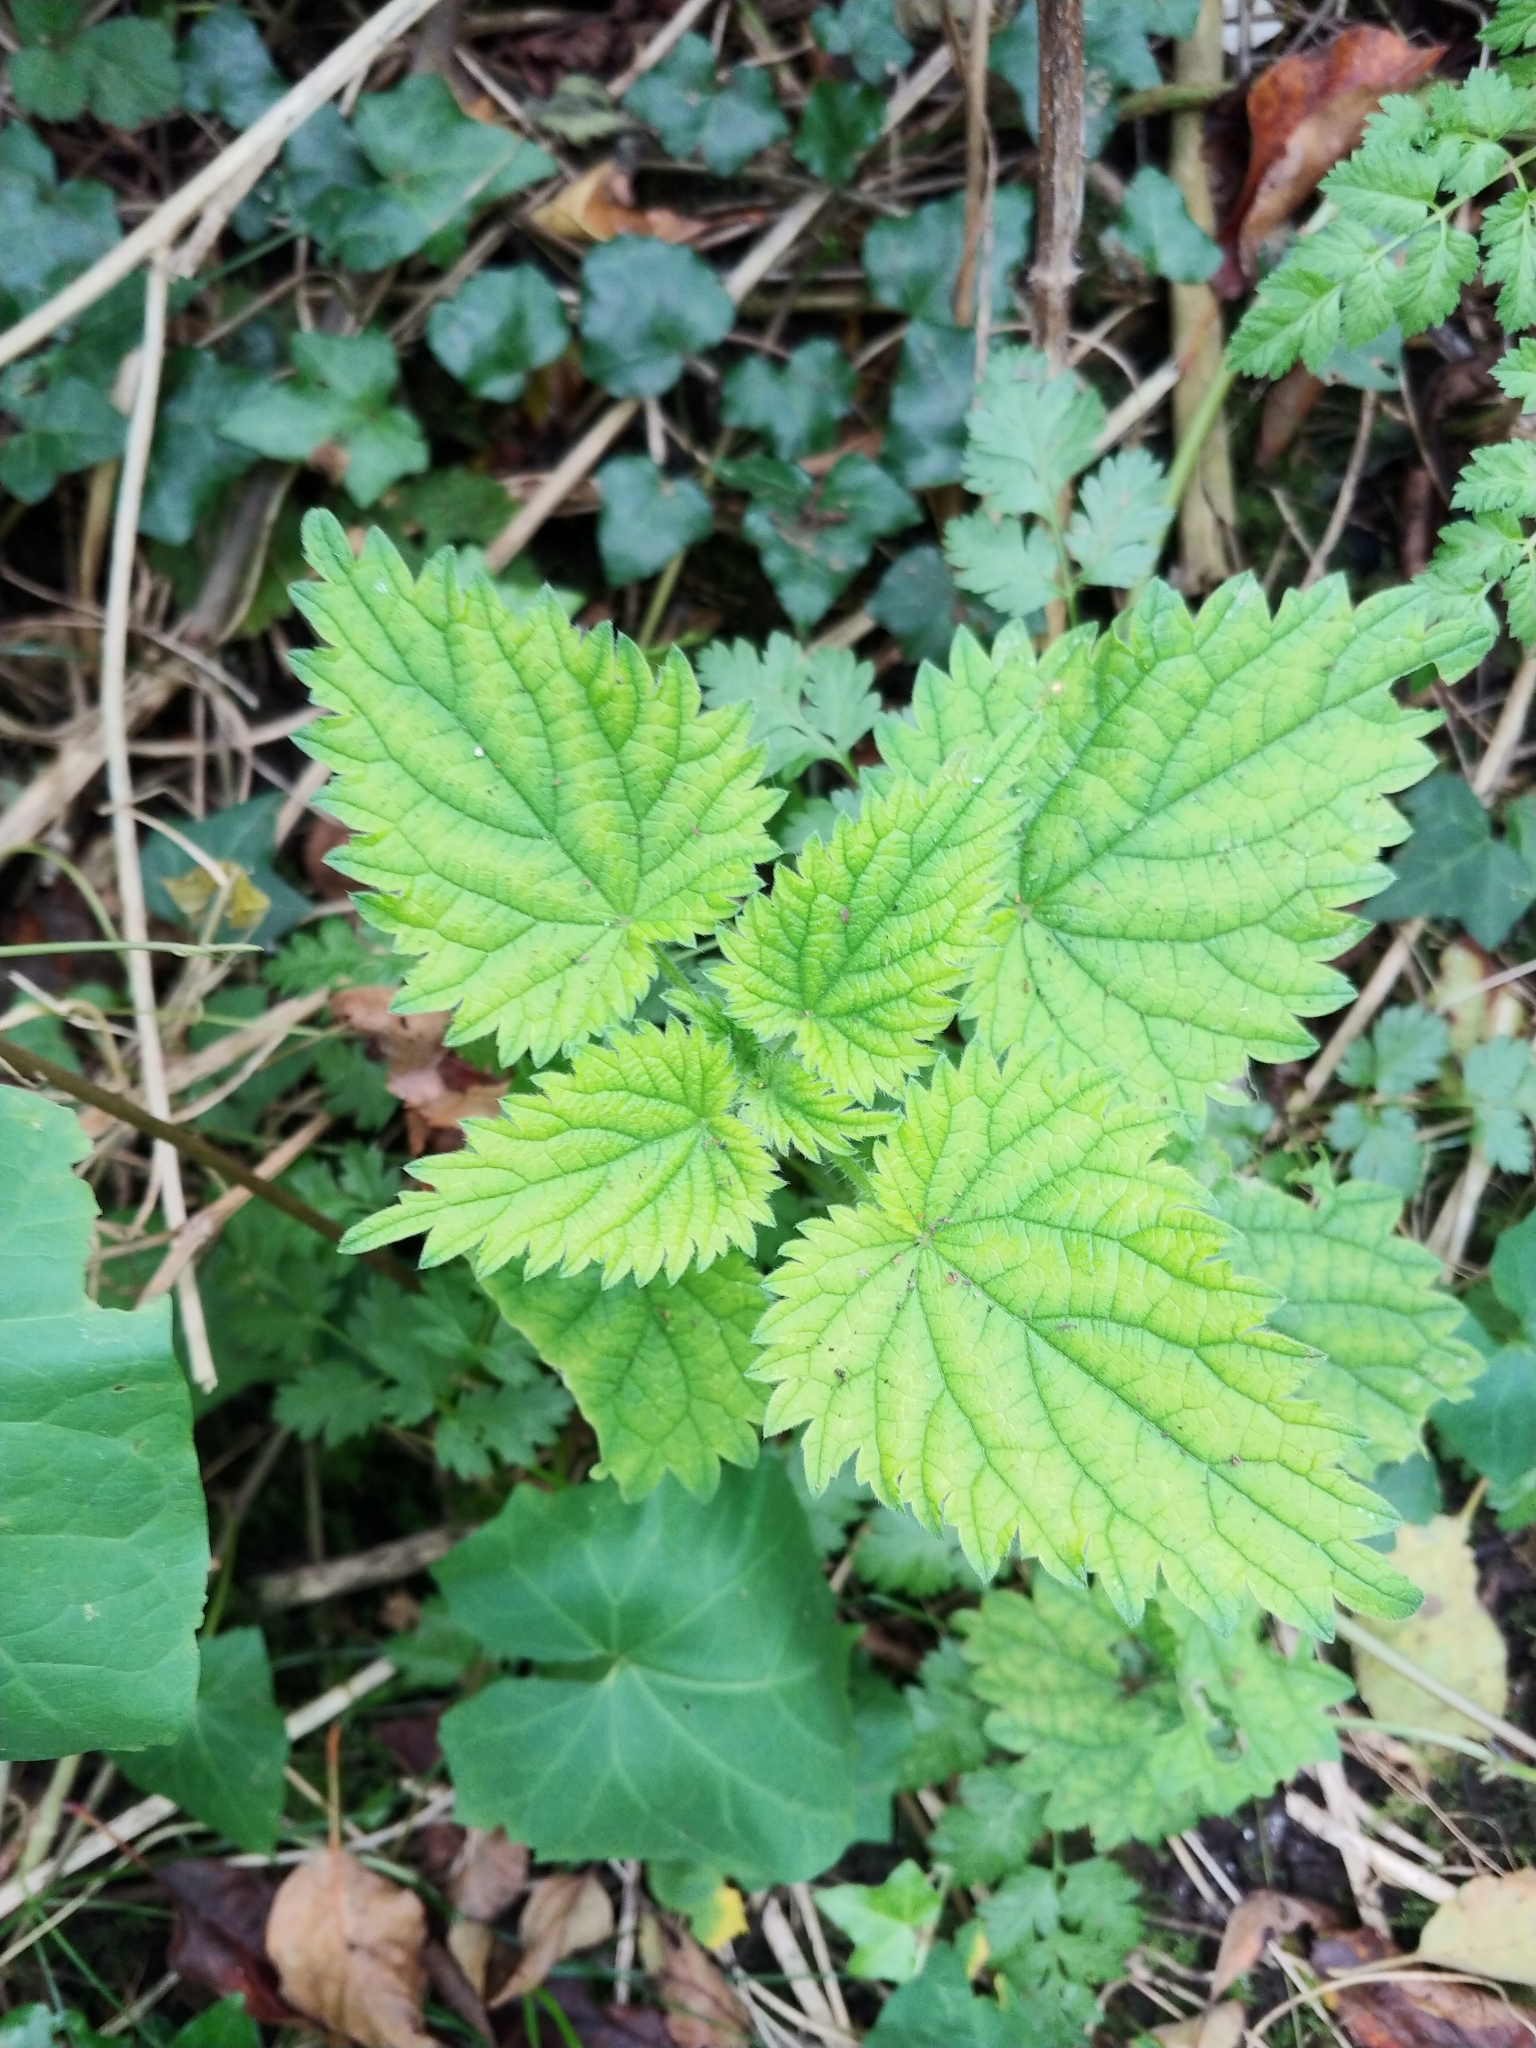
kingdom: Plantae
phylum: Tracheophyta
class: Magnoliopsida
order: Rosales
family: Urticaceae
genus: Urtica
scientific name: Urtica dioica
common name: Common nettle
